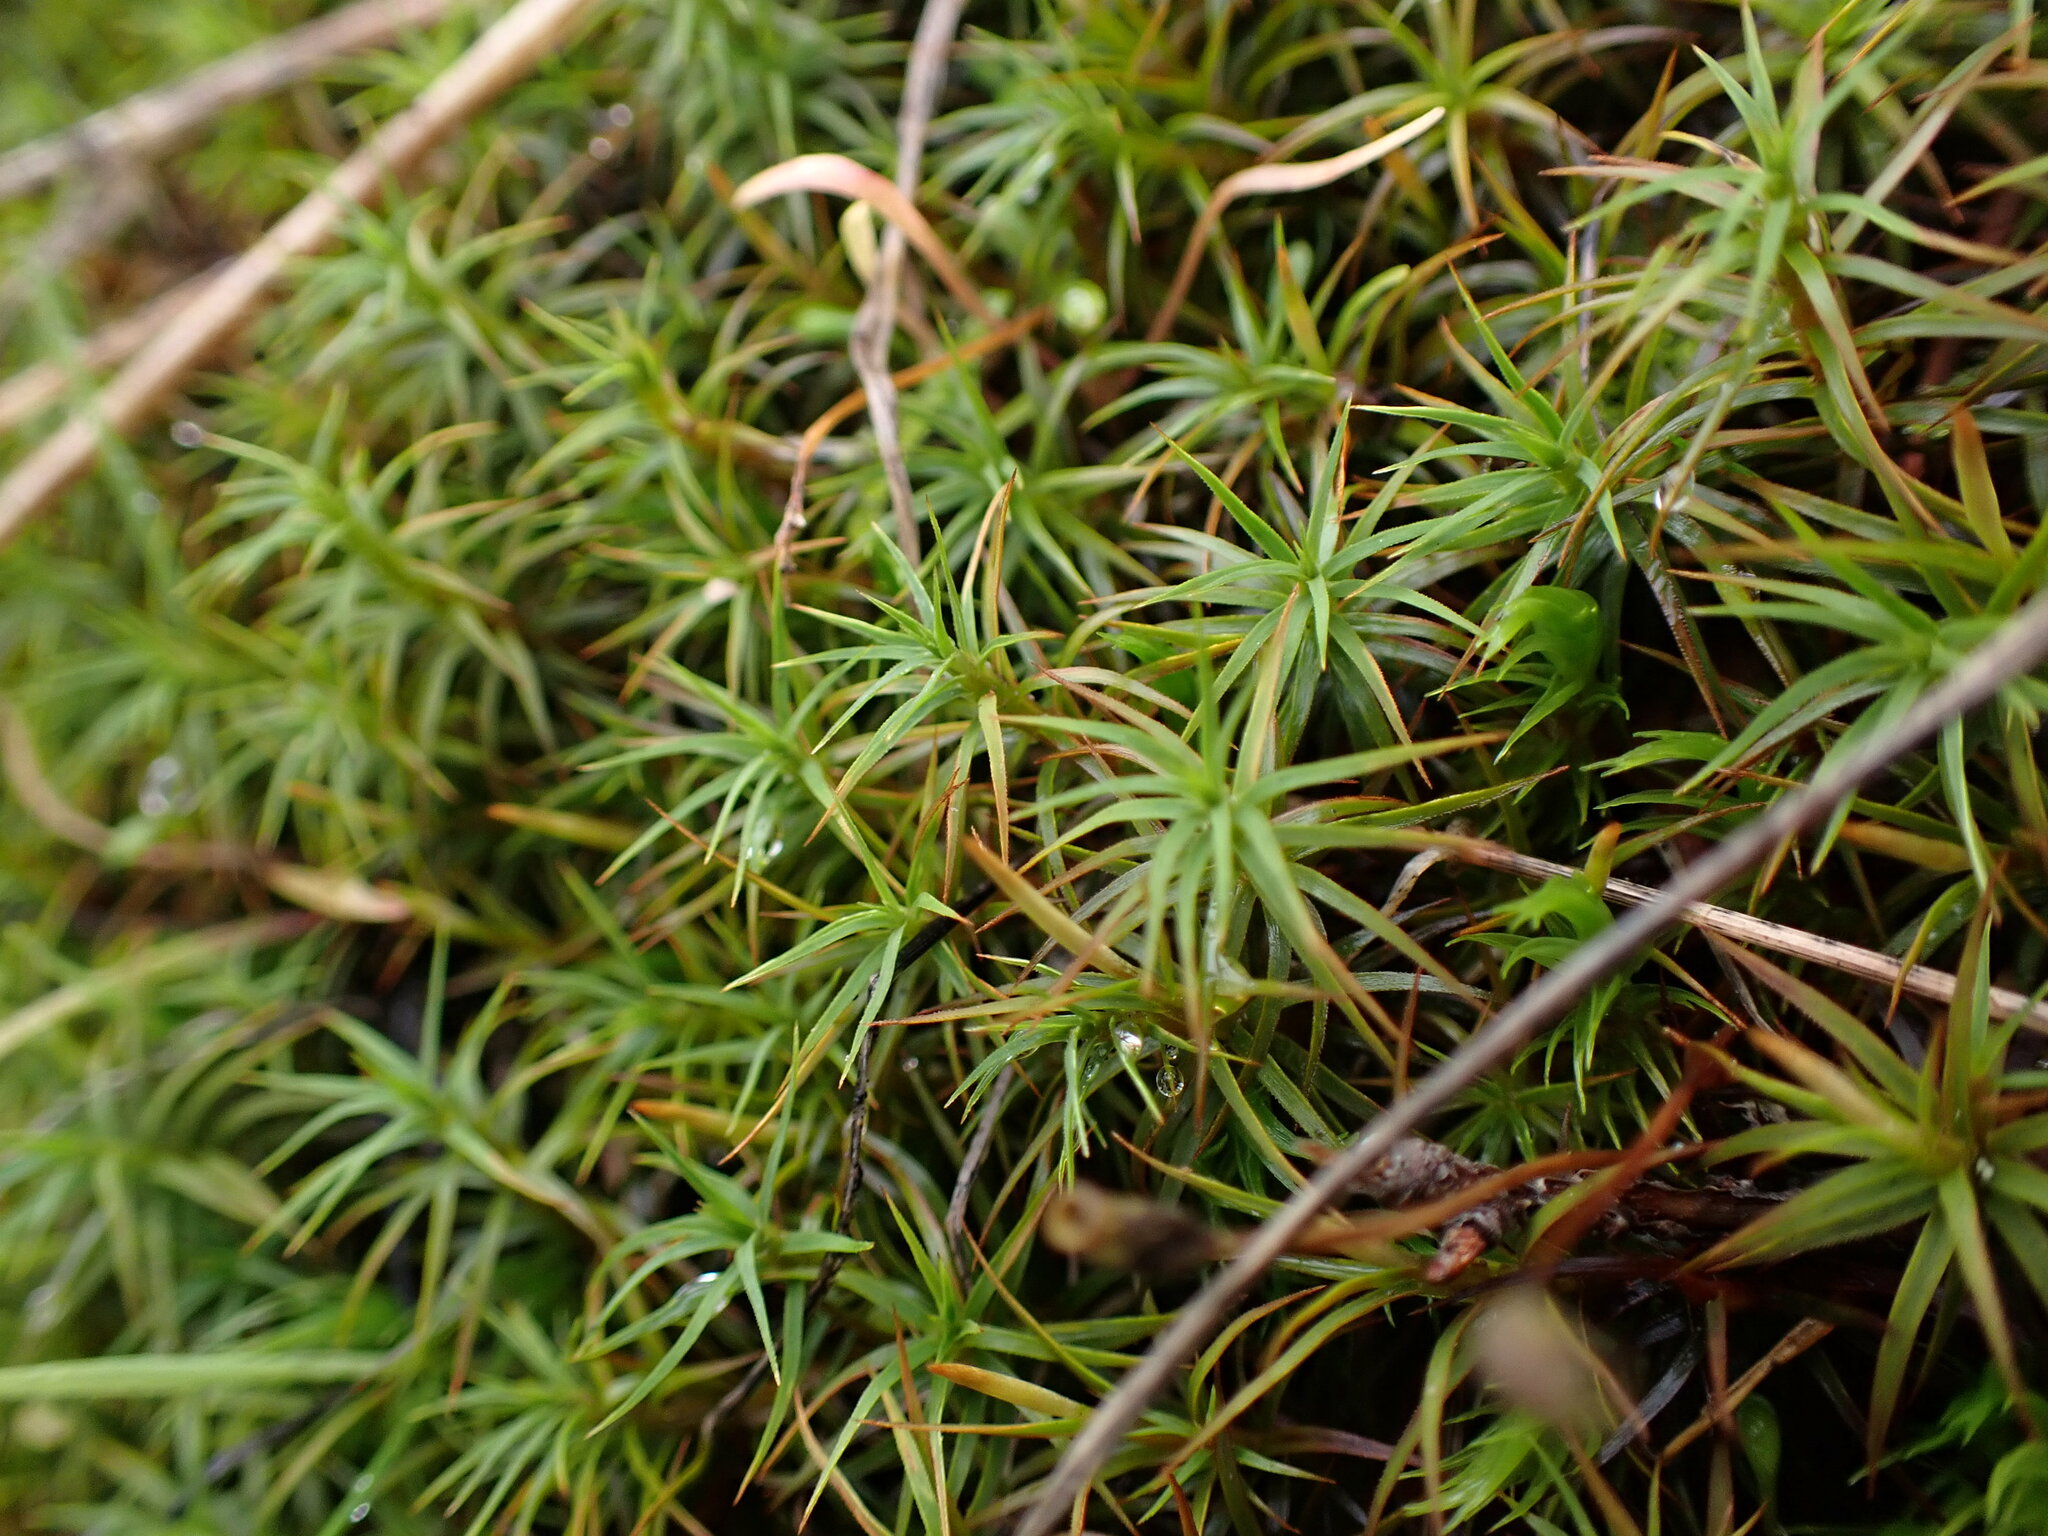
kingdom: Plantae
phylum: Bryophyta
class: Polytrichopsida
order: Polytrichales
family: Polytrichaceae
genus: Polytrichastrum
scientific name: Polytrichastrum alpinum
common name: Alpine haircap
